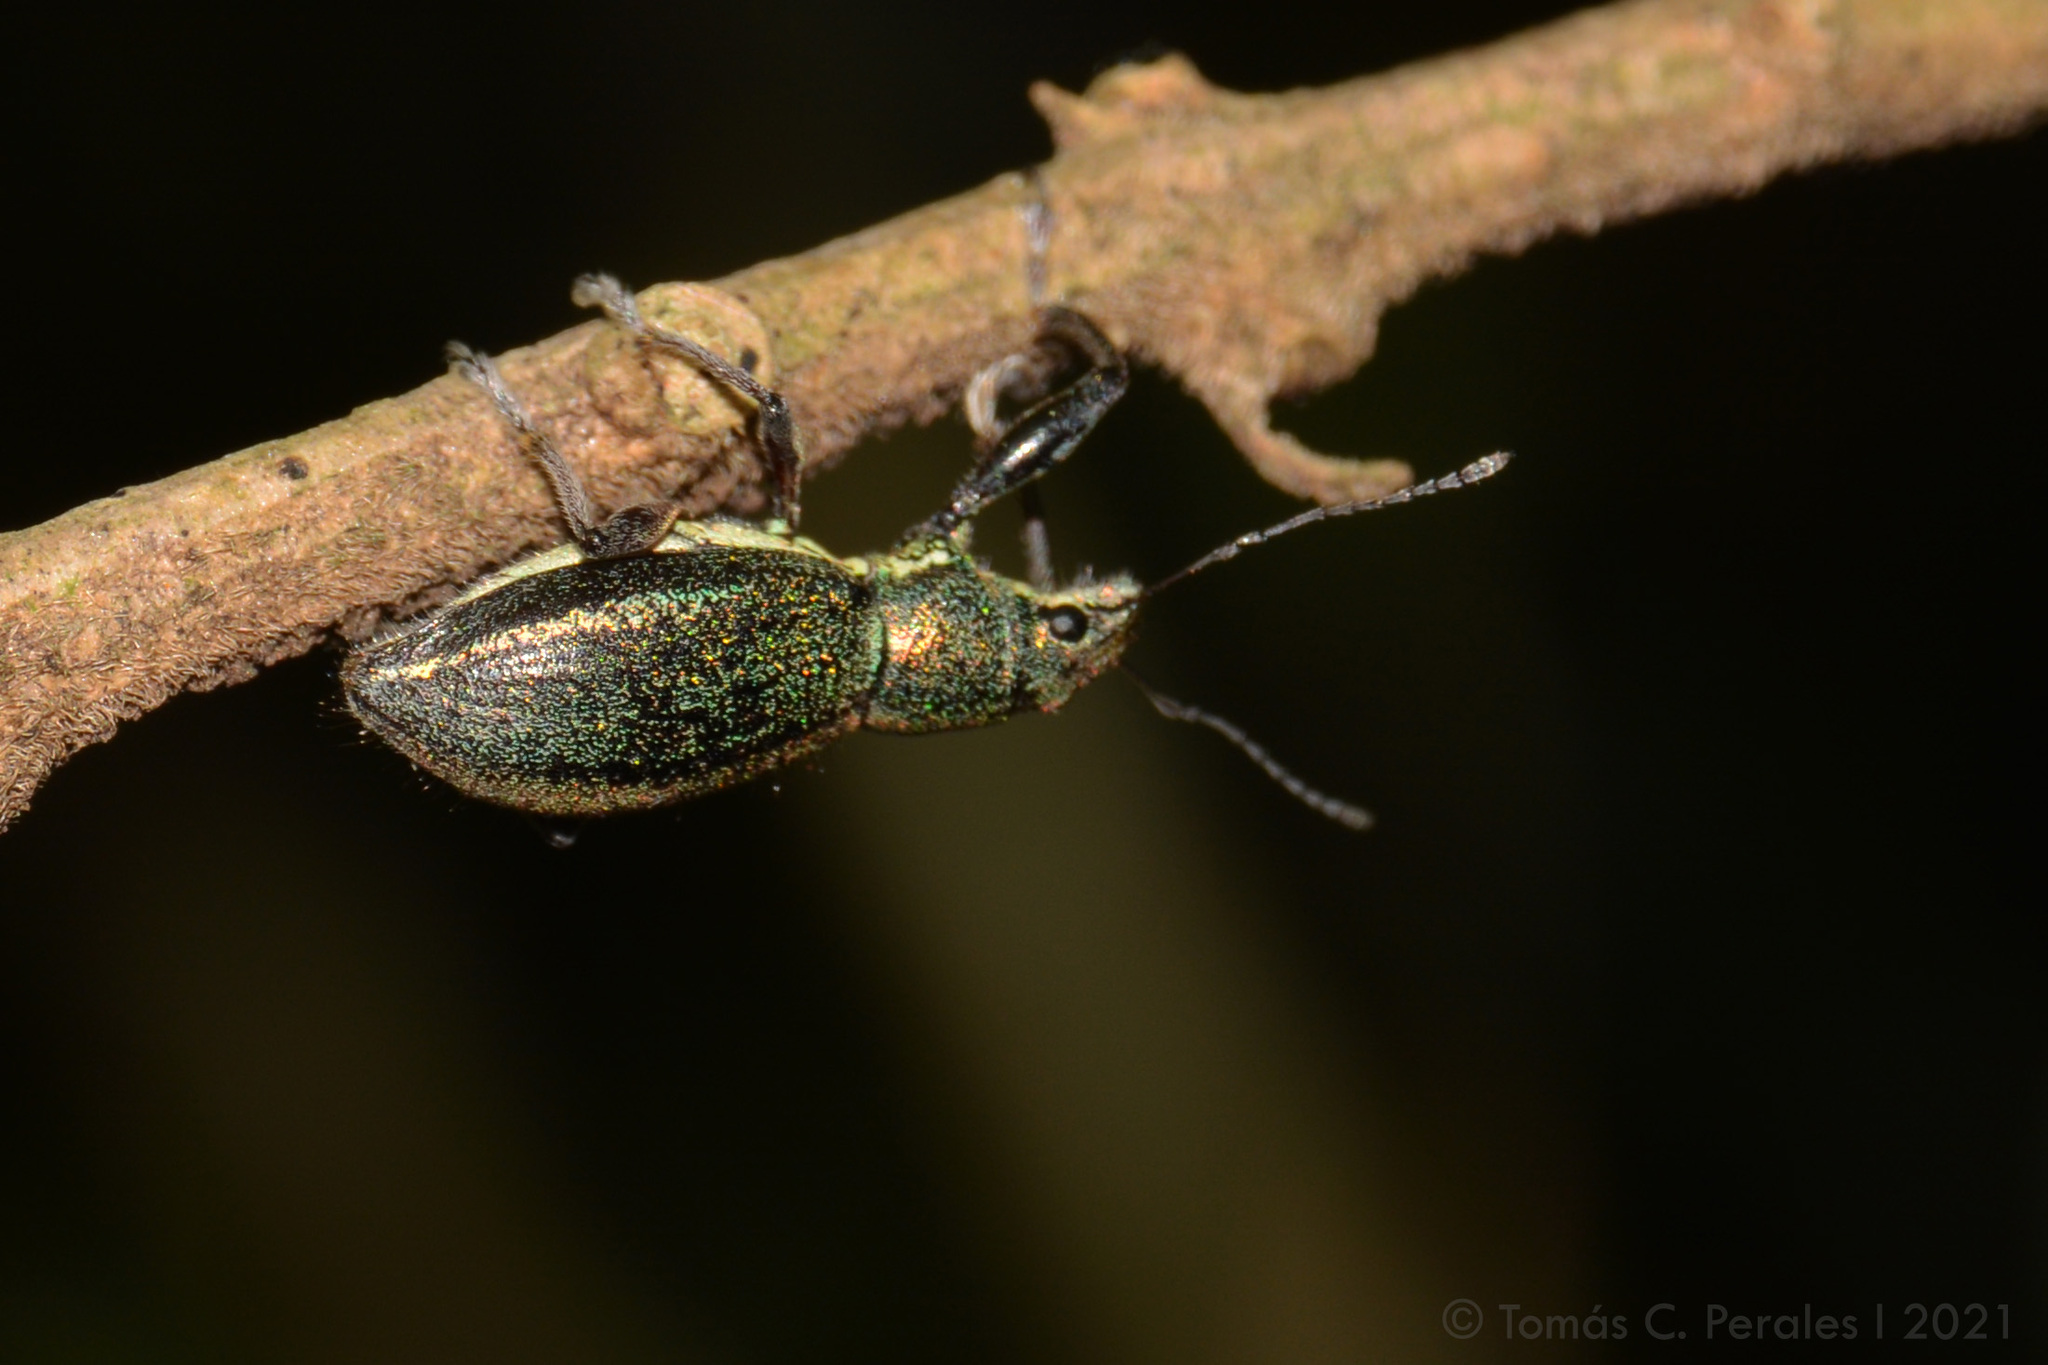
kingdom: Animalia
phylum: Arthropoda
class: Insecta
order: Coleoptera
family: Curculionidae
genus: Naupactus
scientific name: Naupactus auricinctus
